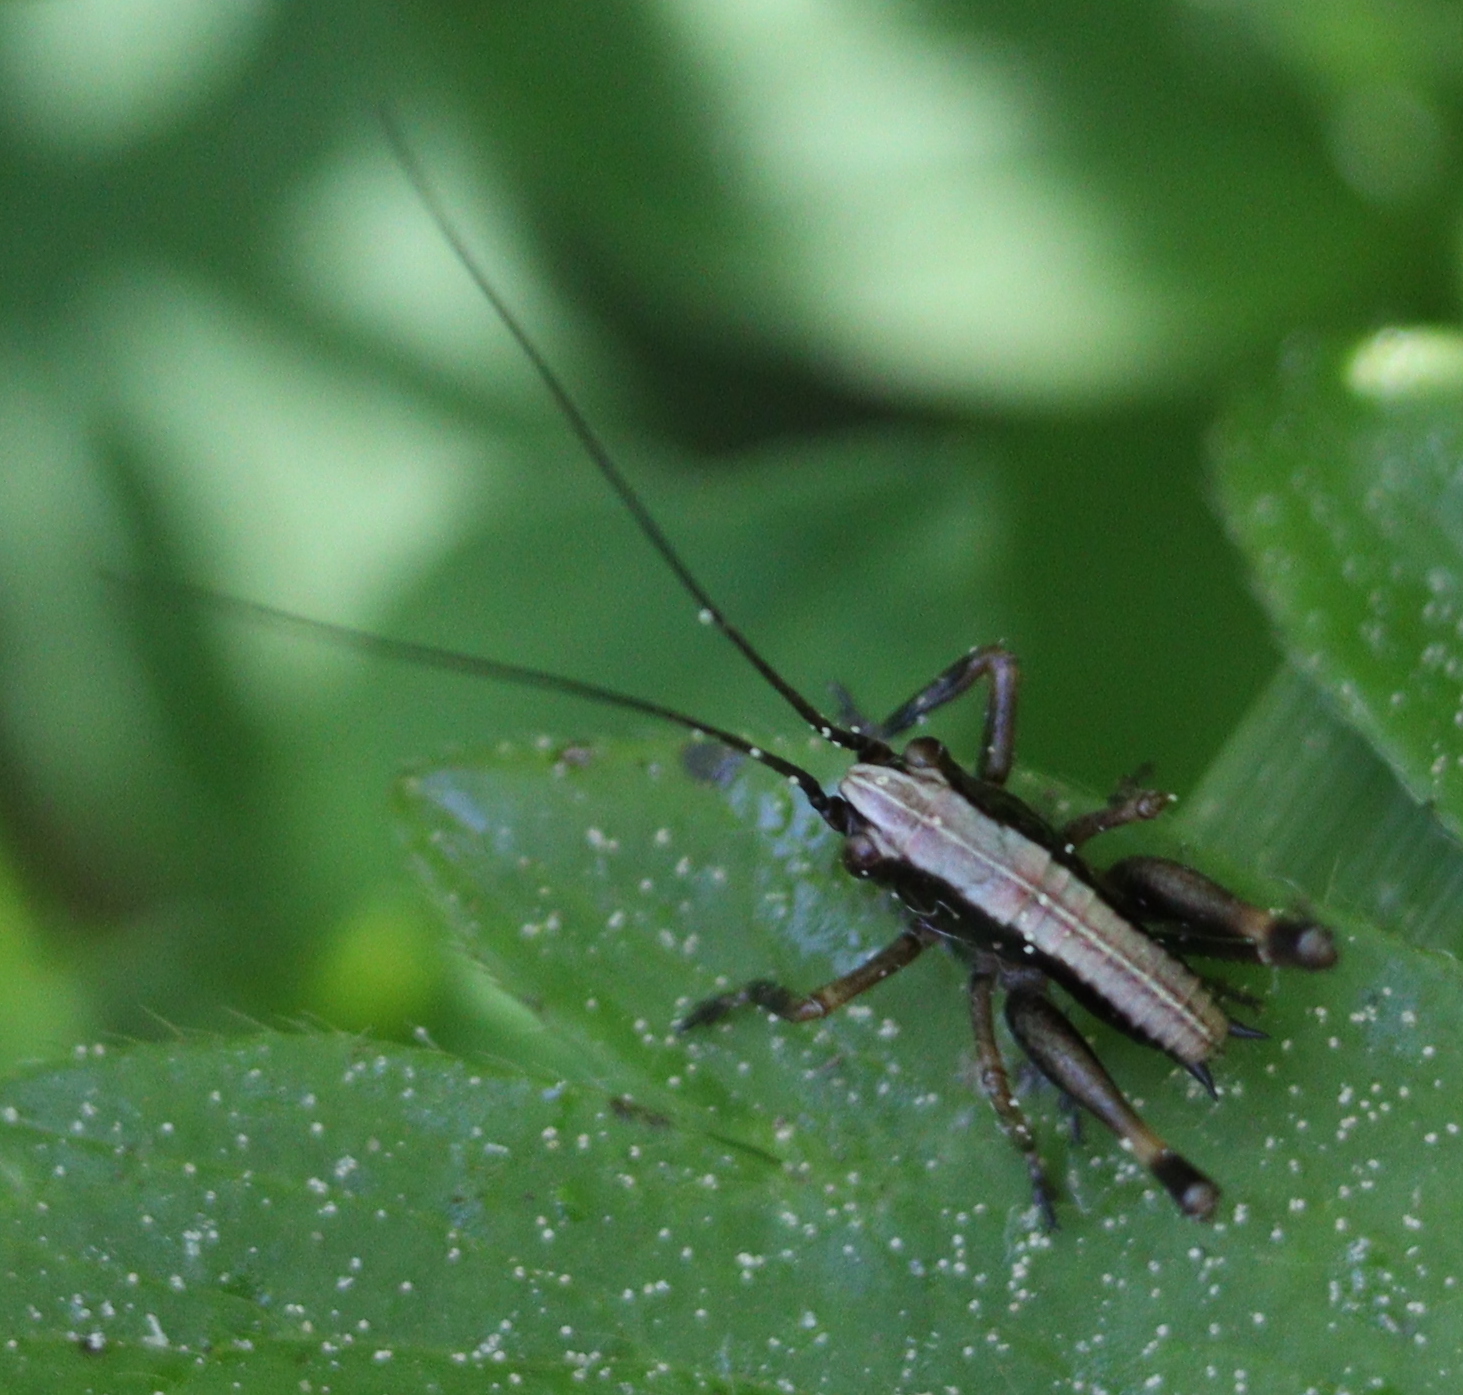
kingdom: Animalia
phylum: Arthropoda
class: Insecta
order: Orthoptera
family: Tettigoniidae
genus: Pholidoptera
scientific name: Pholidoptera griseoaptera
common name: Dark bush-cricket
